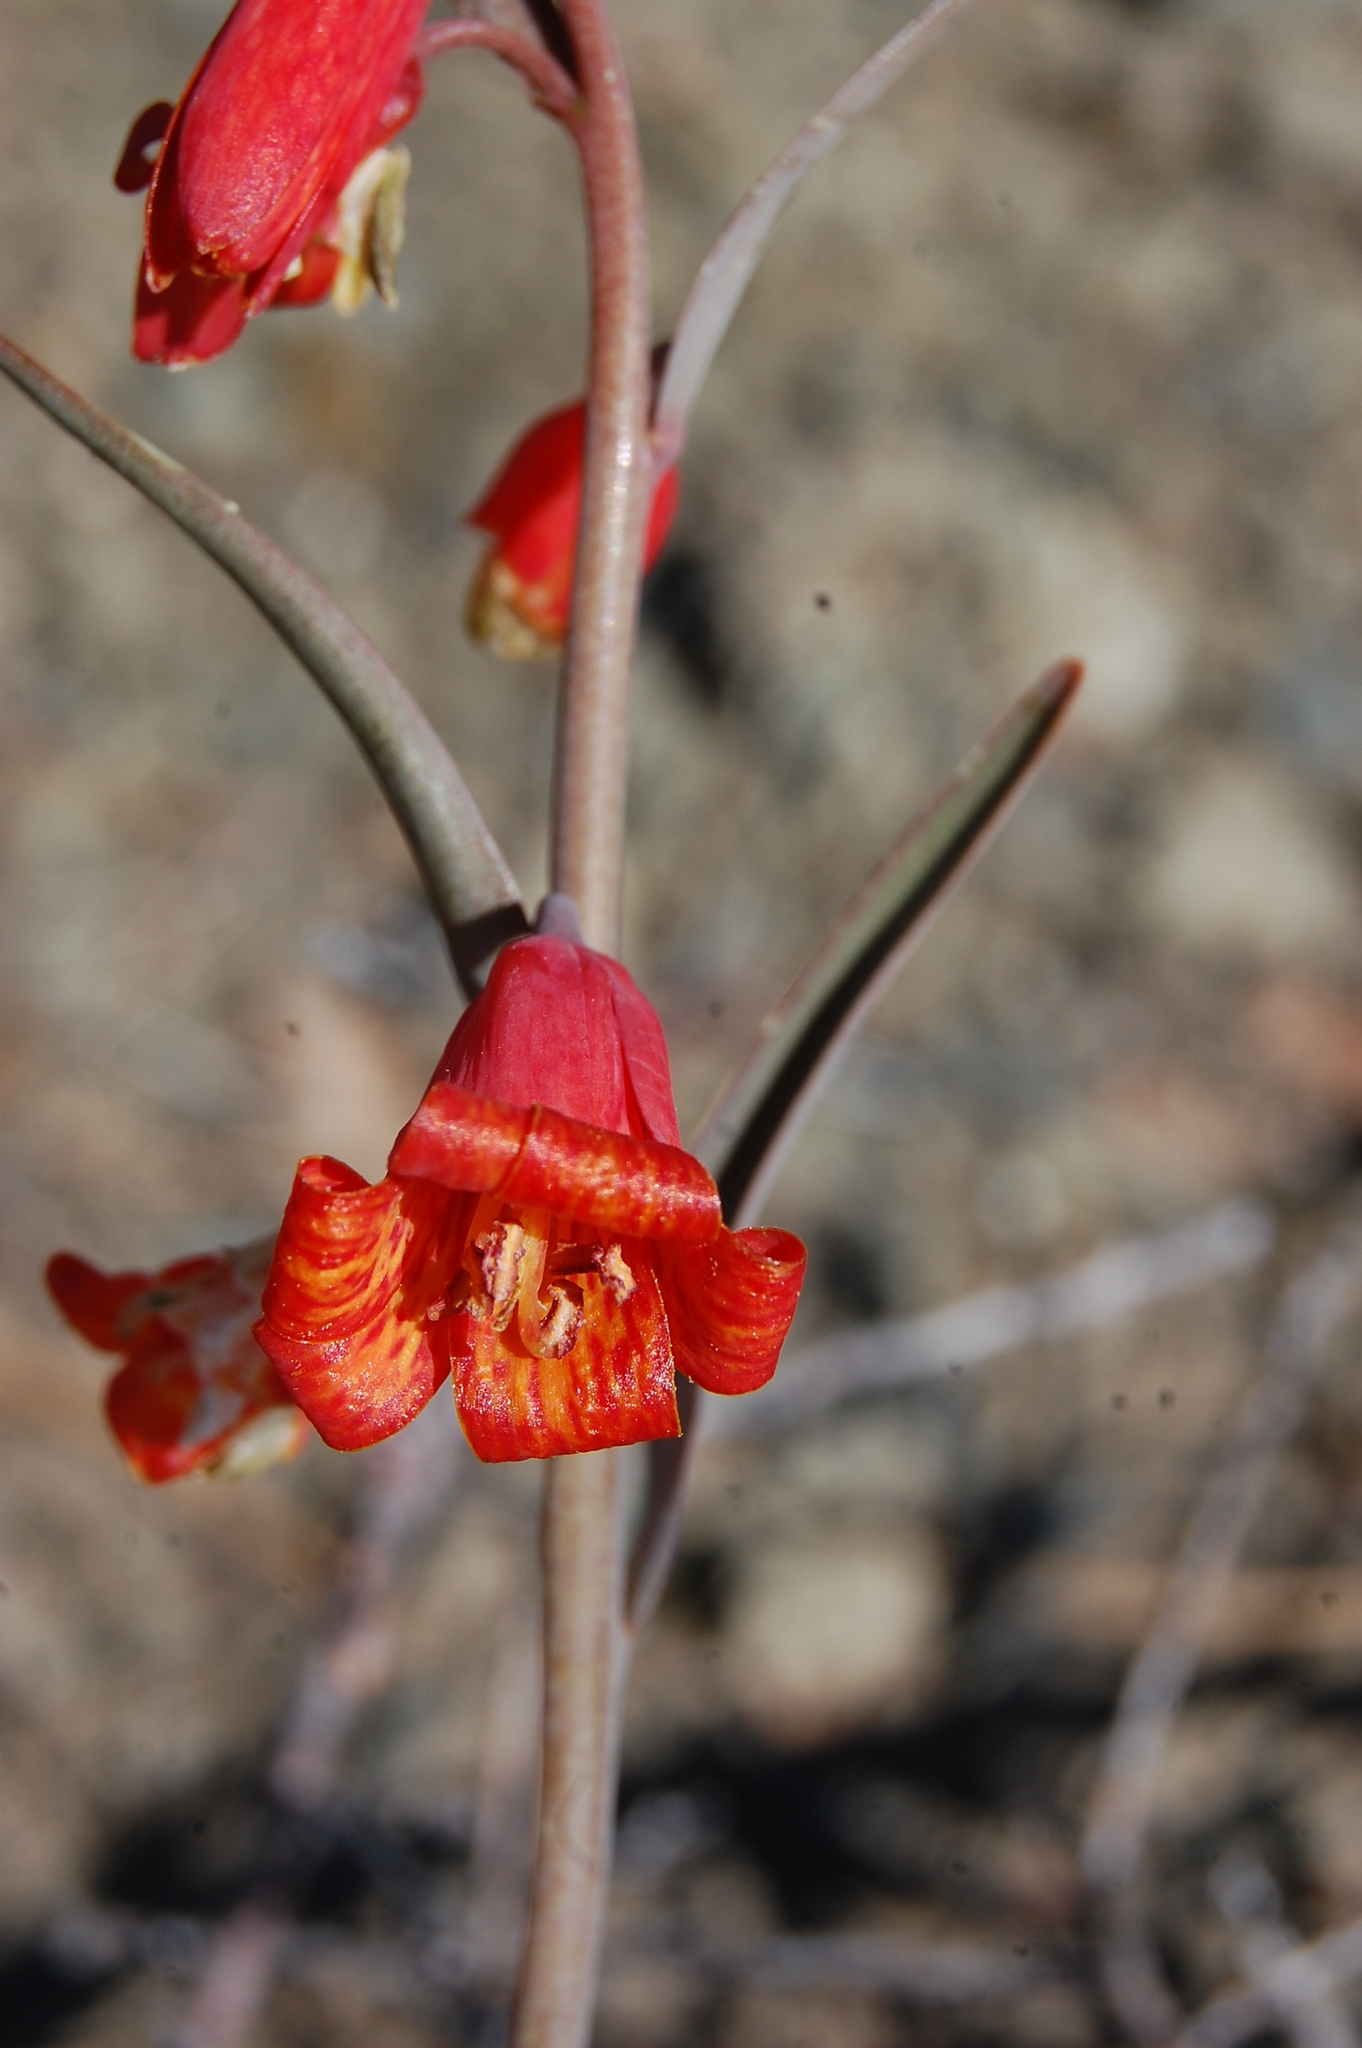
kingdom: Plantae
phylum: Tracheophyta
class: Liliopsida
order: Liliales
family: Liliaceae
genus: Fritillaria
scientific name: Fritillaria recurva
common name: Scarlet fritillary
